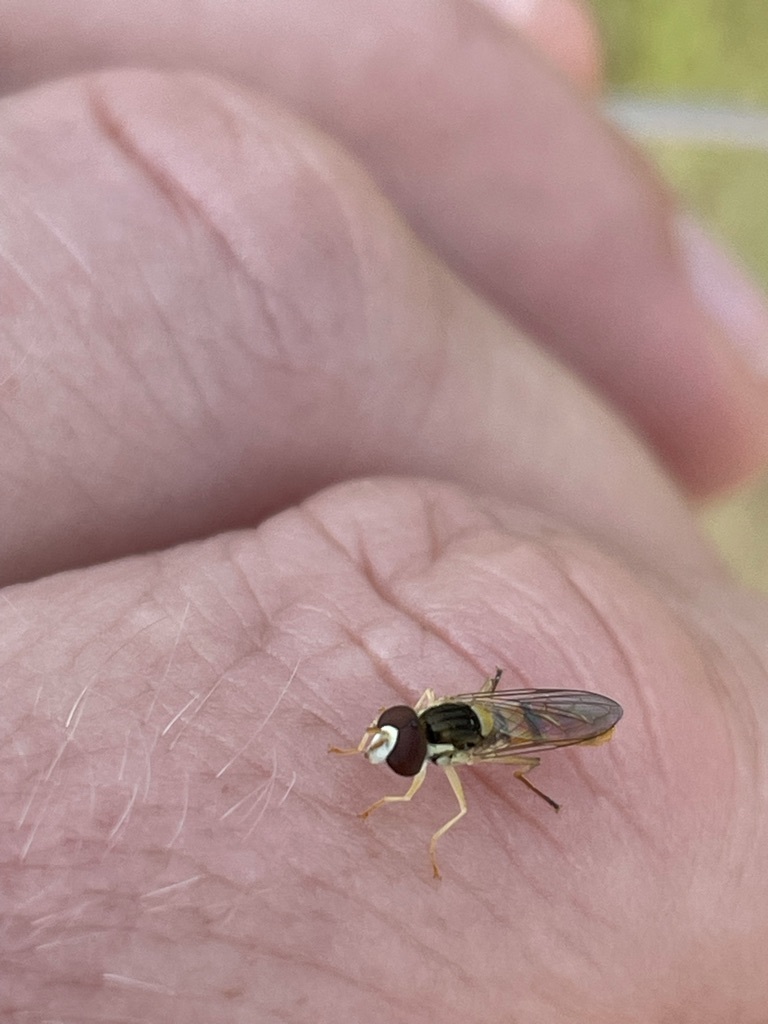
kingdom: Animalia
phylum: Arthropoda
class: Insecta
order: Diptera
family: Syrphidae
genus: Sphaerophoria
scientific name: Sphaerophoria contigua
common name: Tufted globetail
